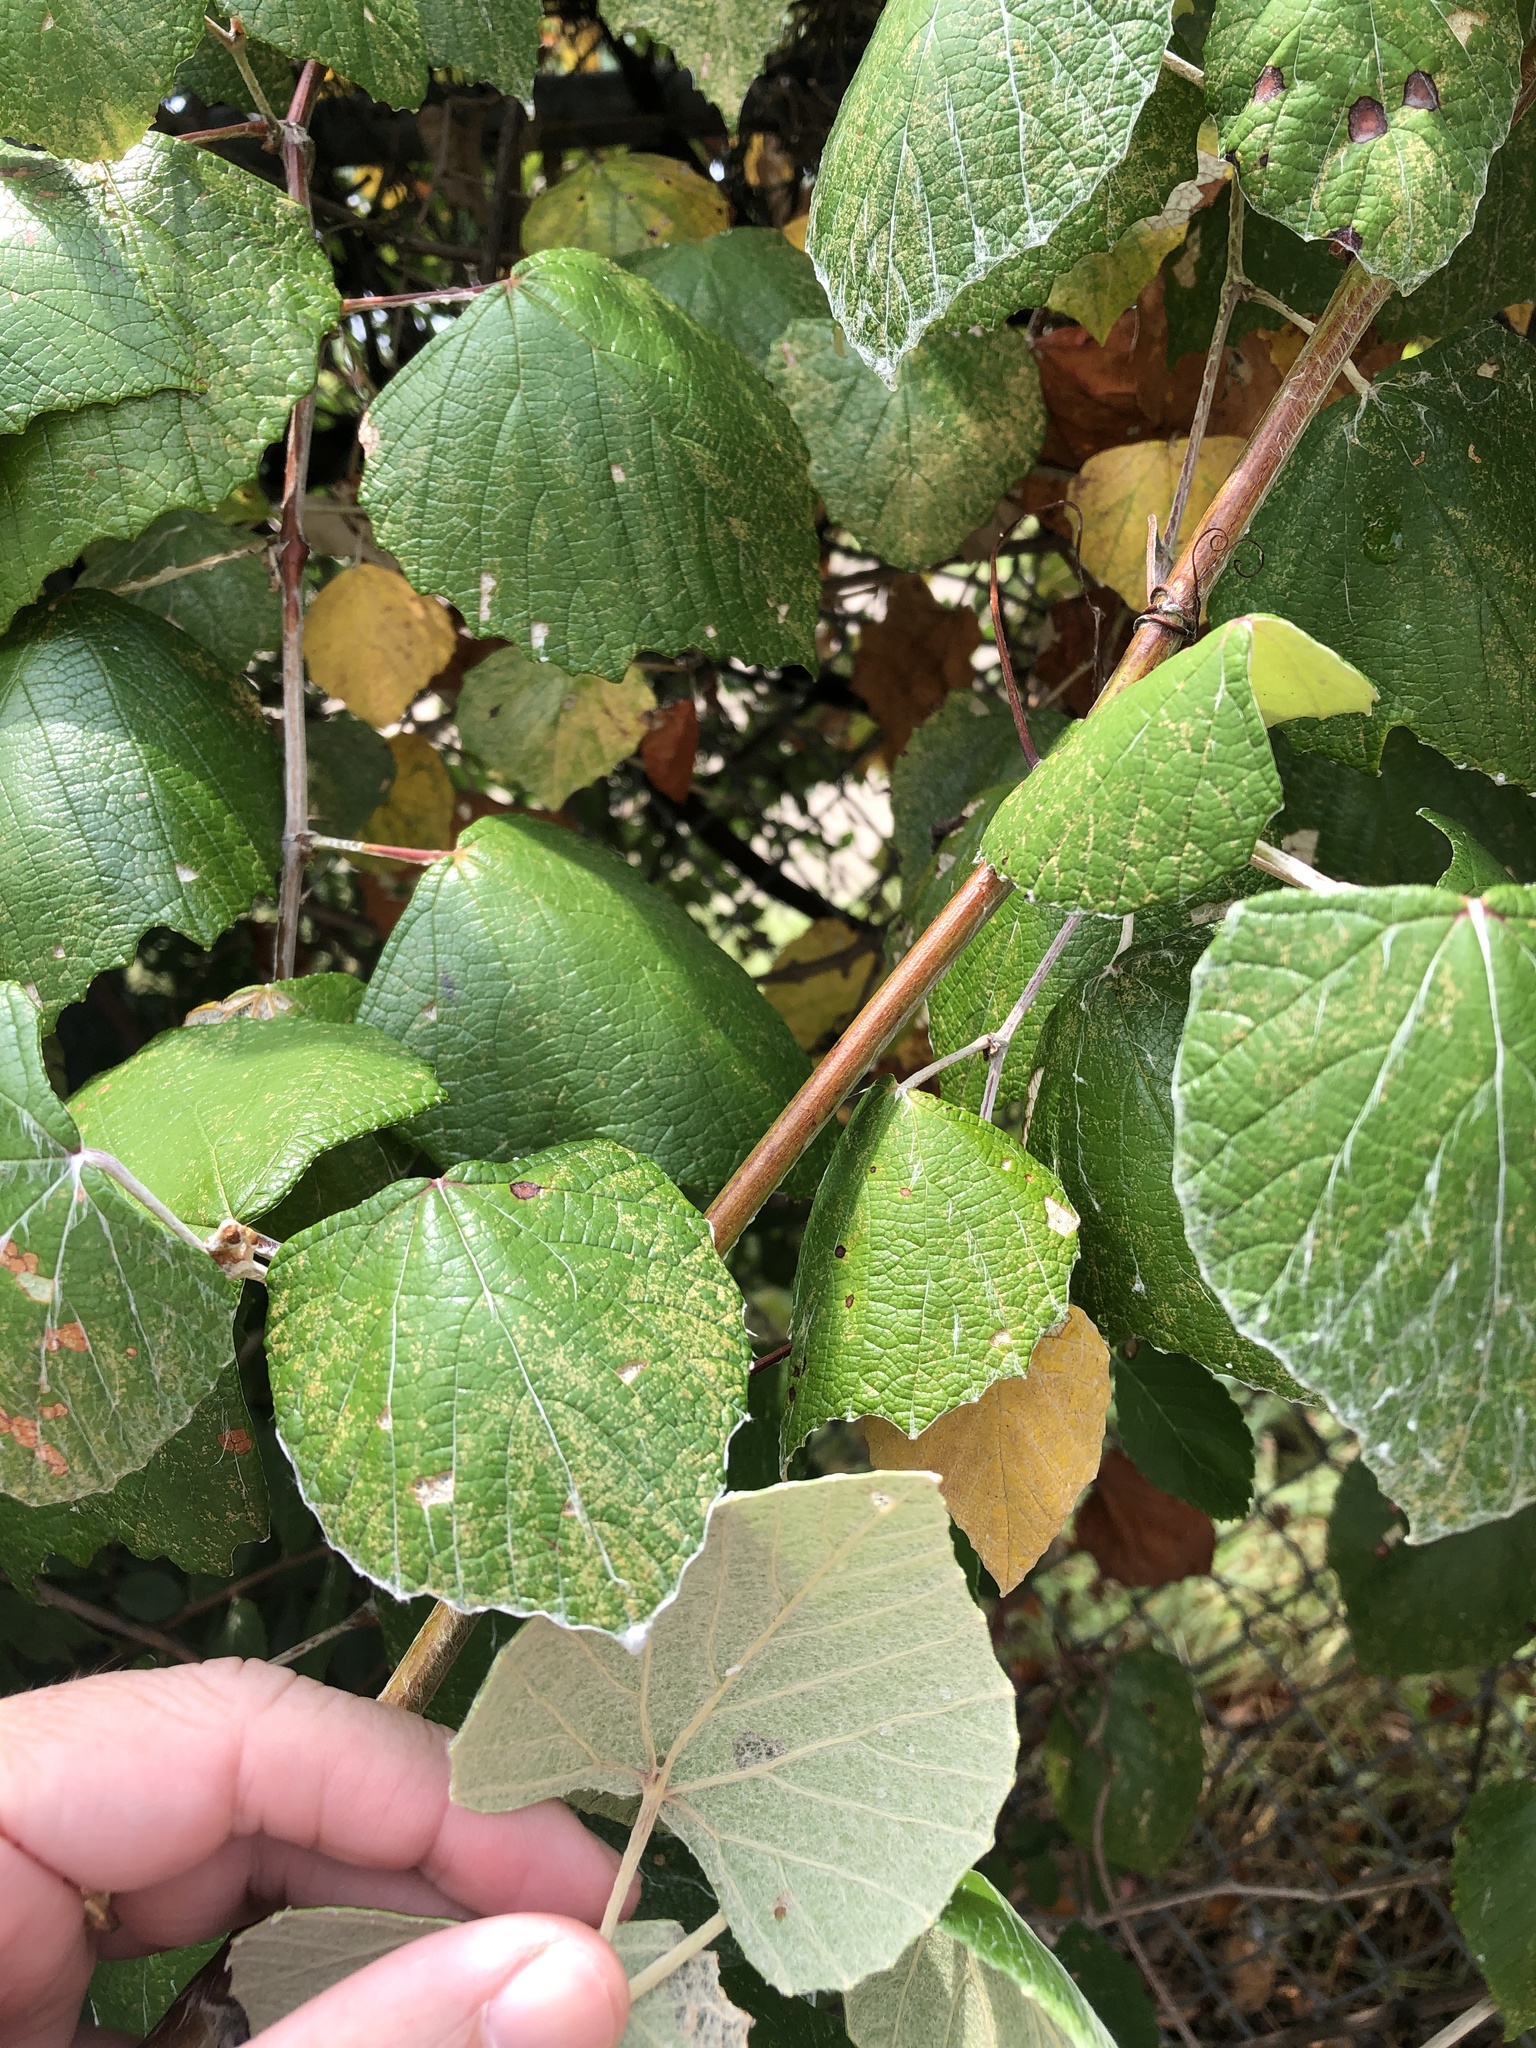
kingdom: Plantae
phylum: Tracheophyta
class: Magnoliopsida
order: Vitales
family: Vitaceae
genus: Vitis
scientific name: Vitis mustangensis
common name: Mustang grape
